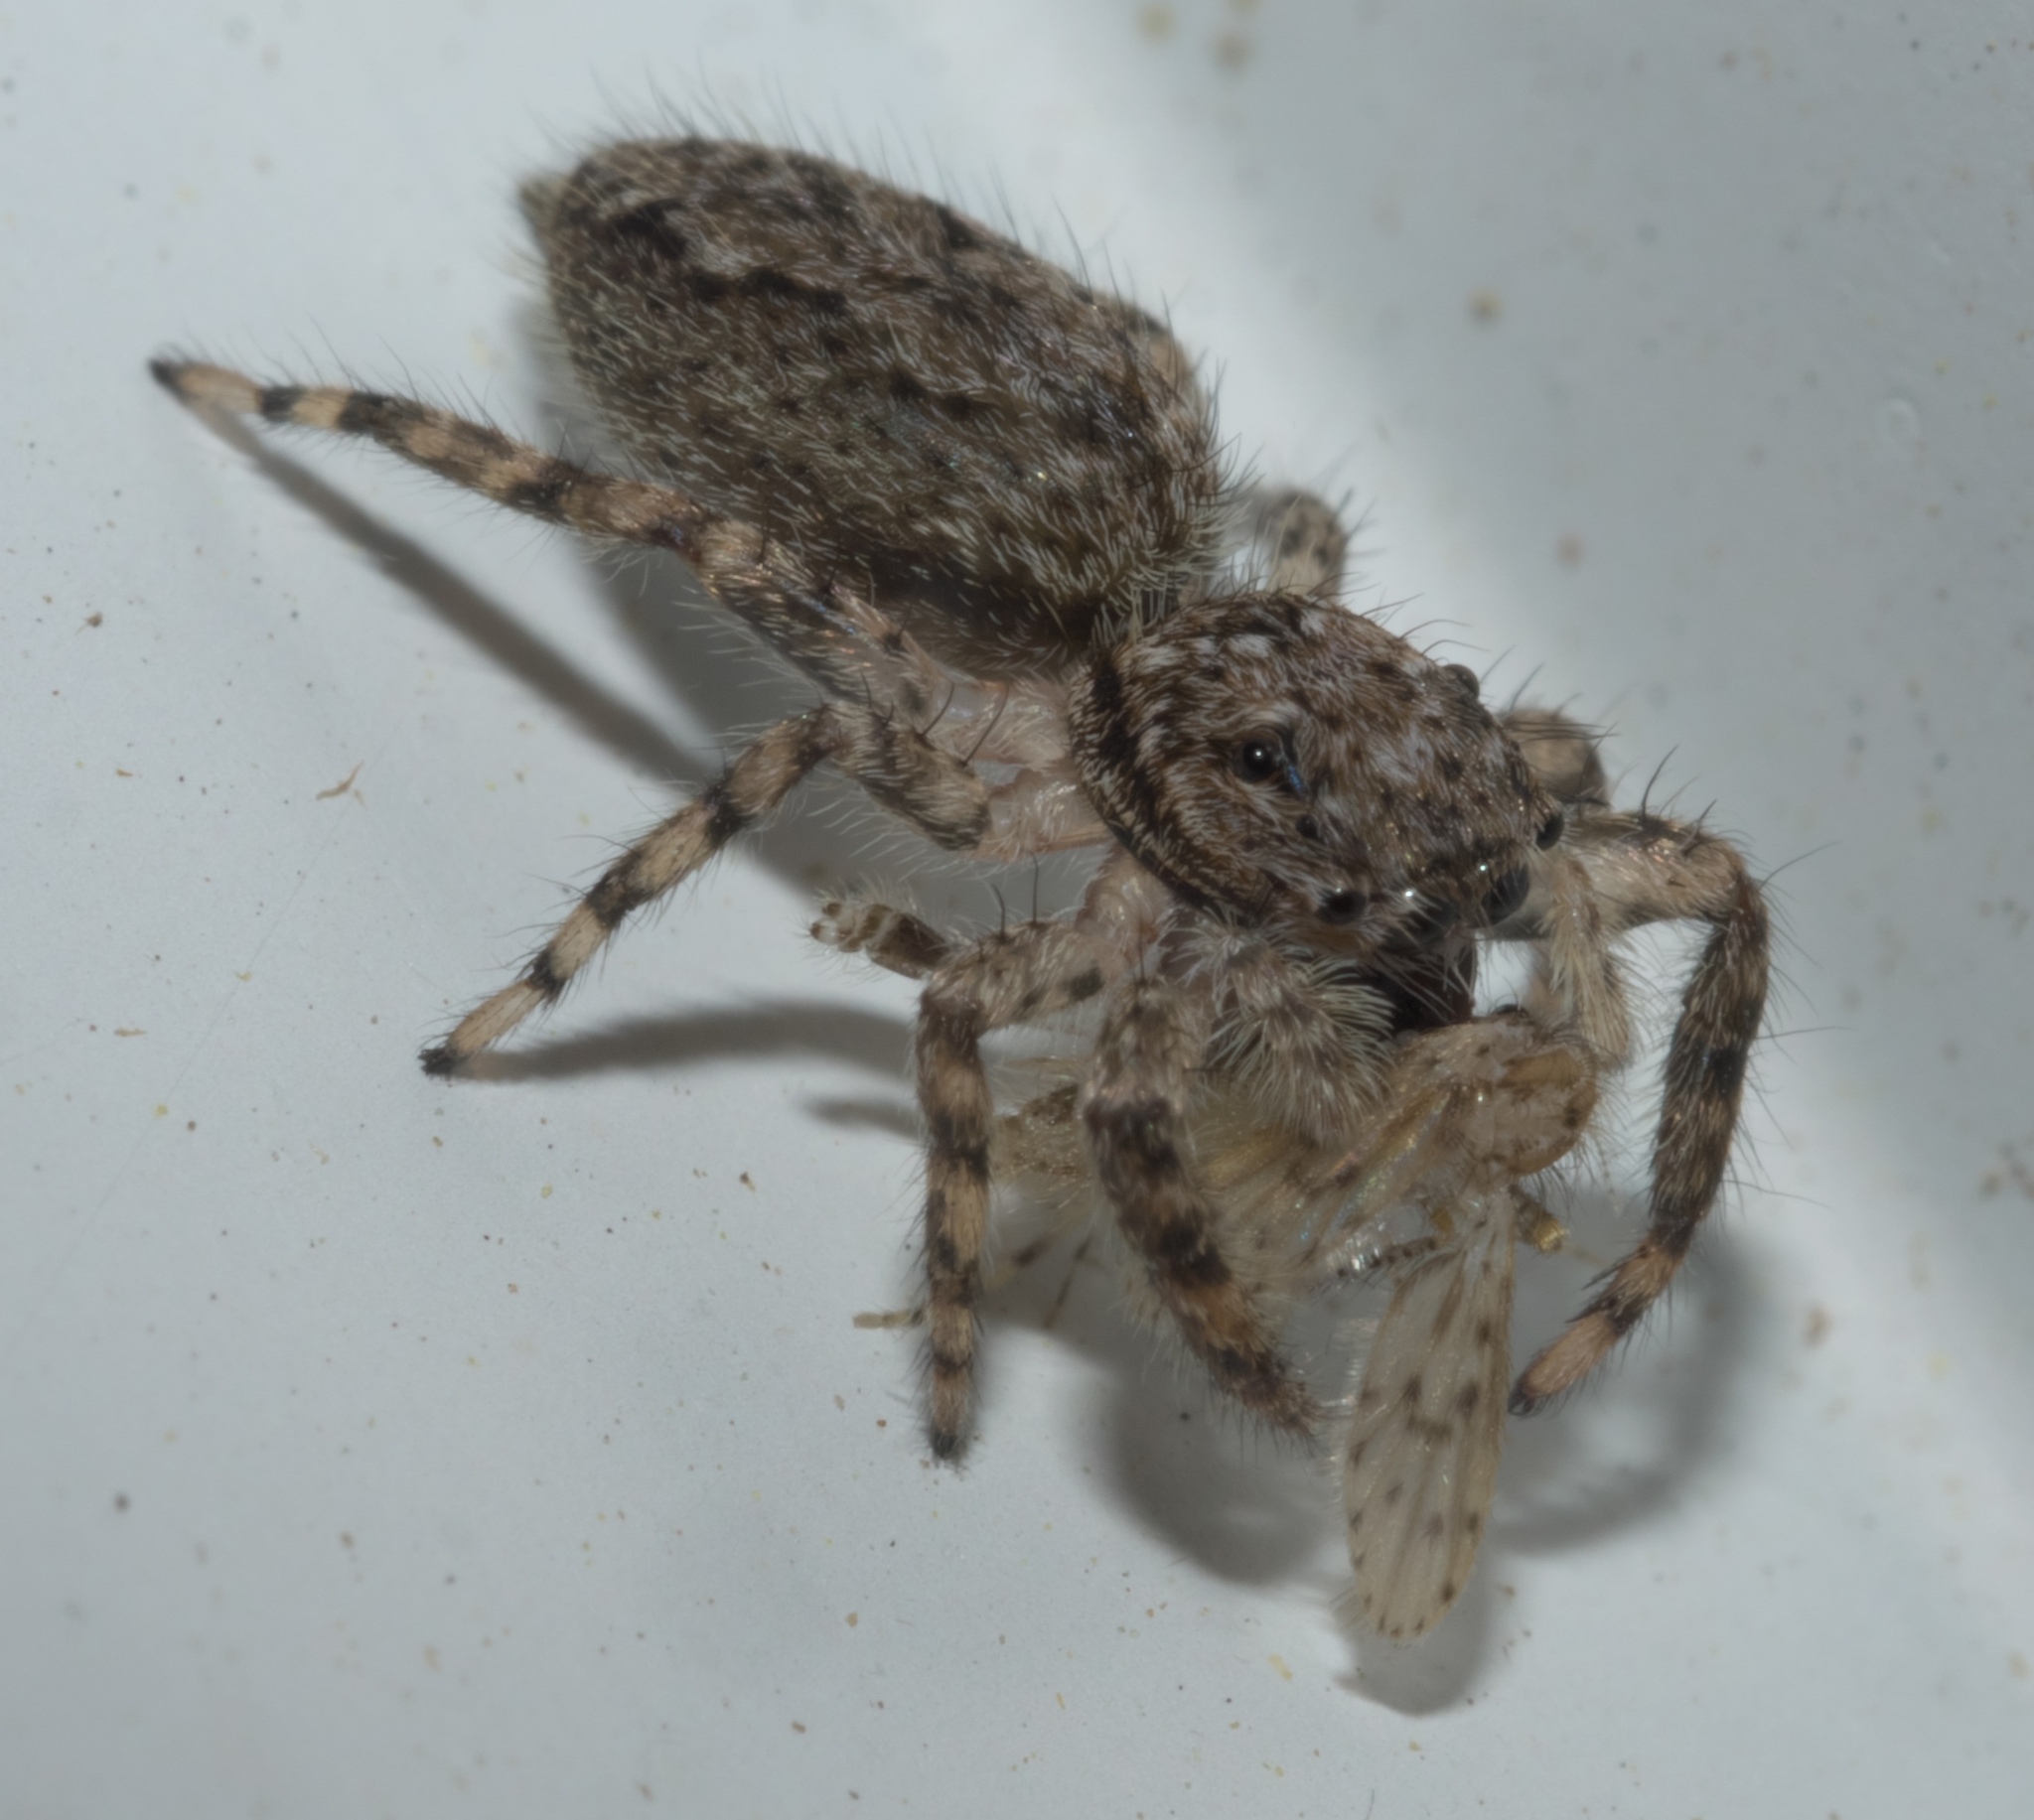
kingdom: Animalia
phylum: Arthropoda
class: Arachnida
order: Araneae
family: Salticidae
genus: Platycryptus
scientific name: Platycryptus undatus
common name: Tan jumping spider
